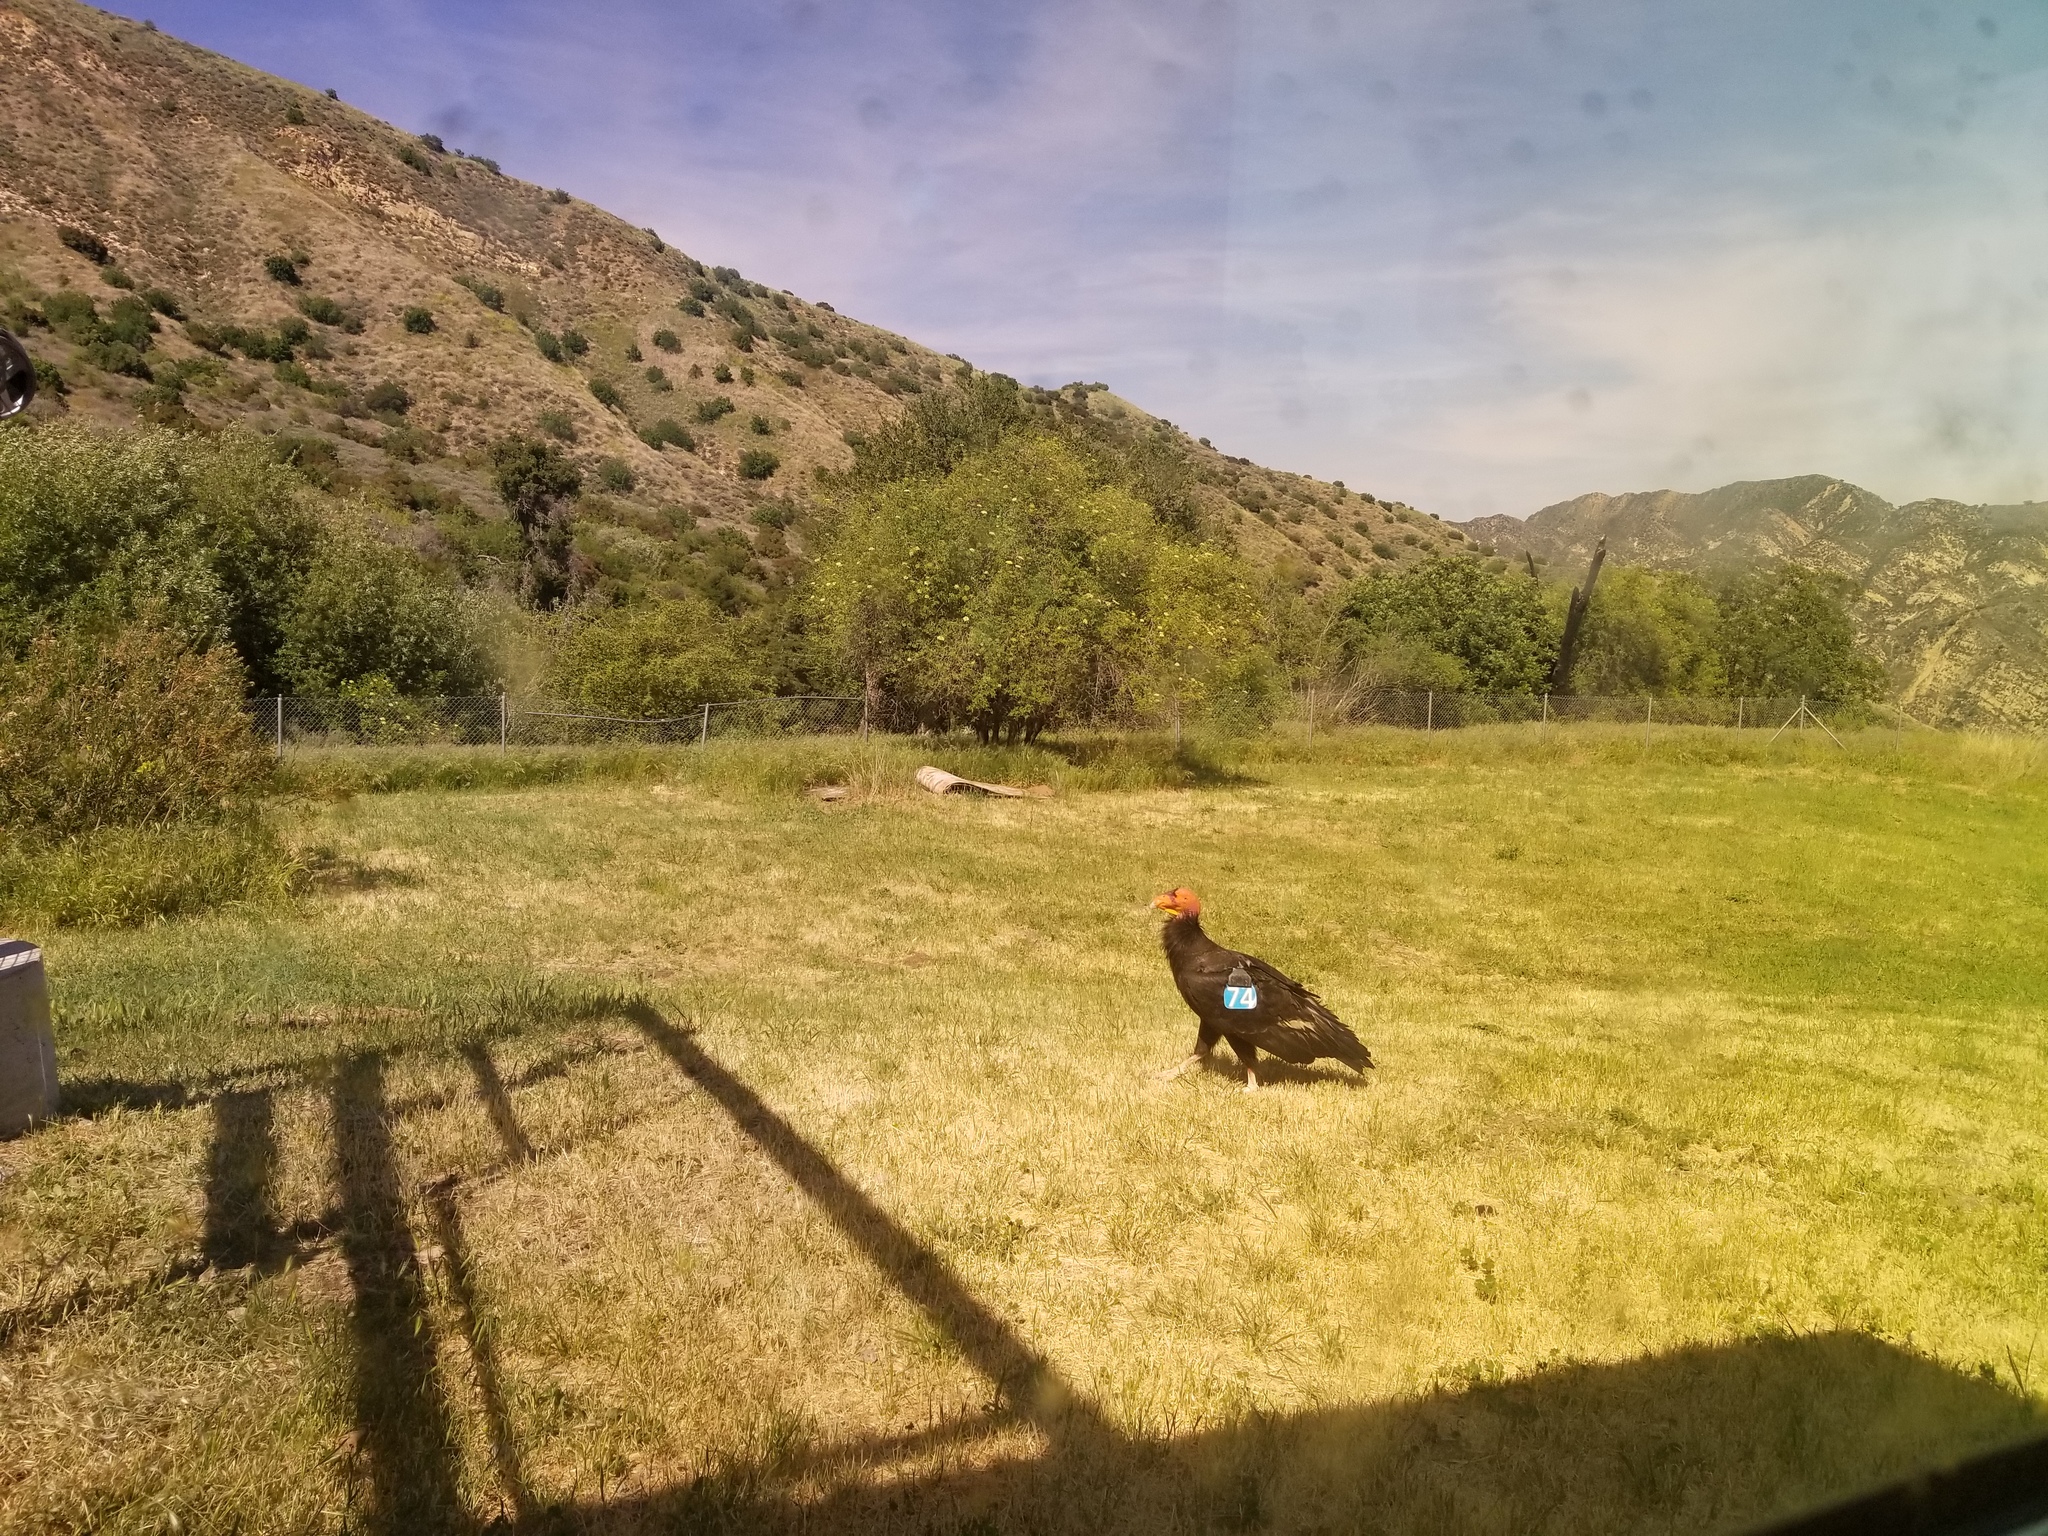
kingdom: Animalia
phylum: Chordata
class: Aves
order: Accipitriformes
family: Cathartidae
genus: Gymnogyps
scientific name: Gymnogyps californianus
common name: California condor
